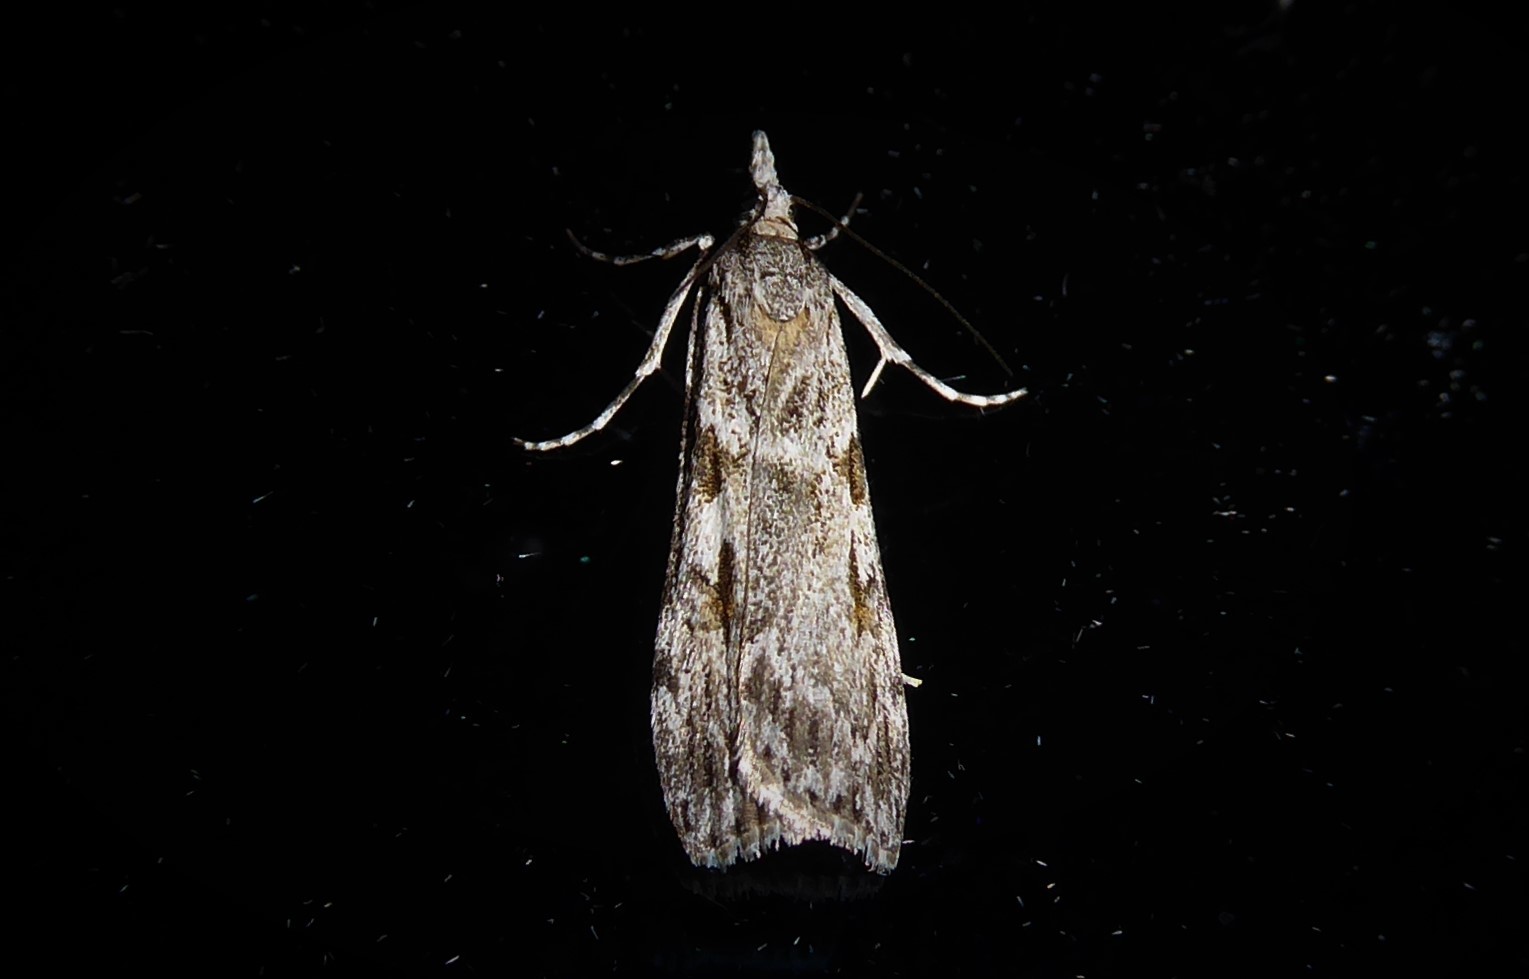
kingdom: Animalia
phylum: Arthropoda
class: Insecta
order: Lepidoptera
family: Crambidae
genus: Scoparia
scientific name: Scoparia halopis
